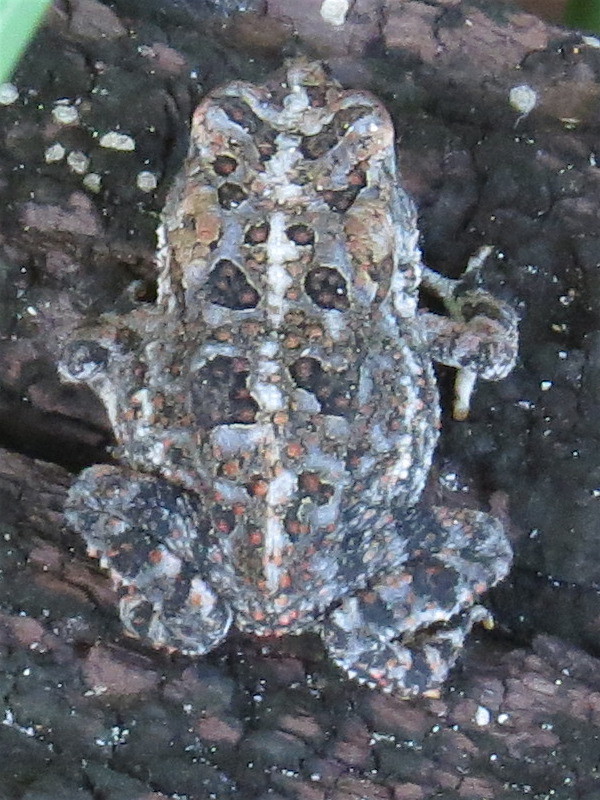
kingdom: Animalia
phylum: Chordata
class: Amphibia
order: Anura
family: Bufonidae
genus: Anaxyrus
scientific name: Anaxyrus terrestris
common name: Southern toad
